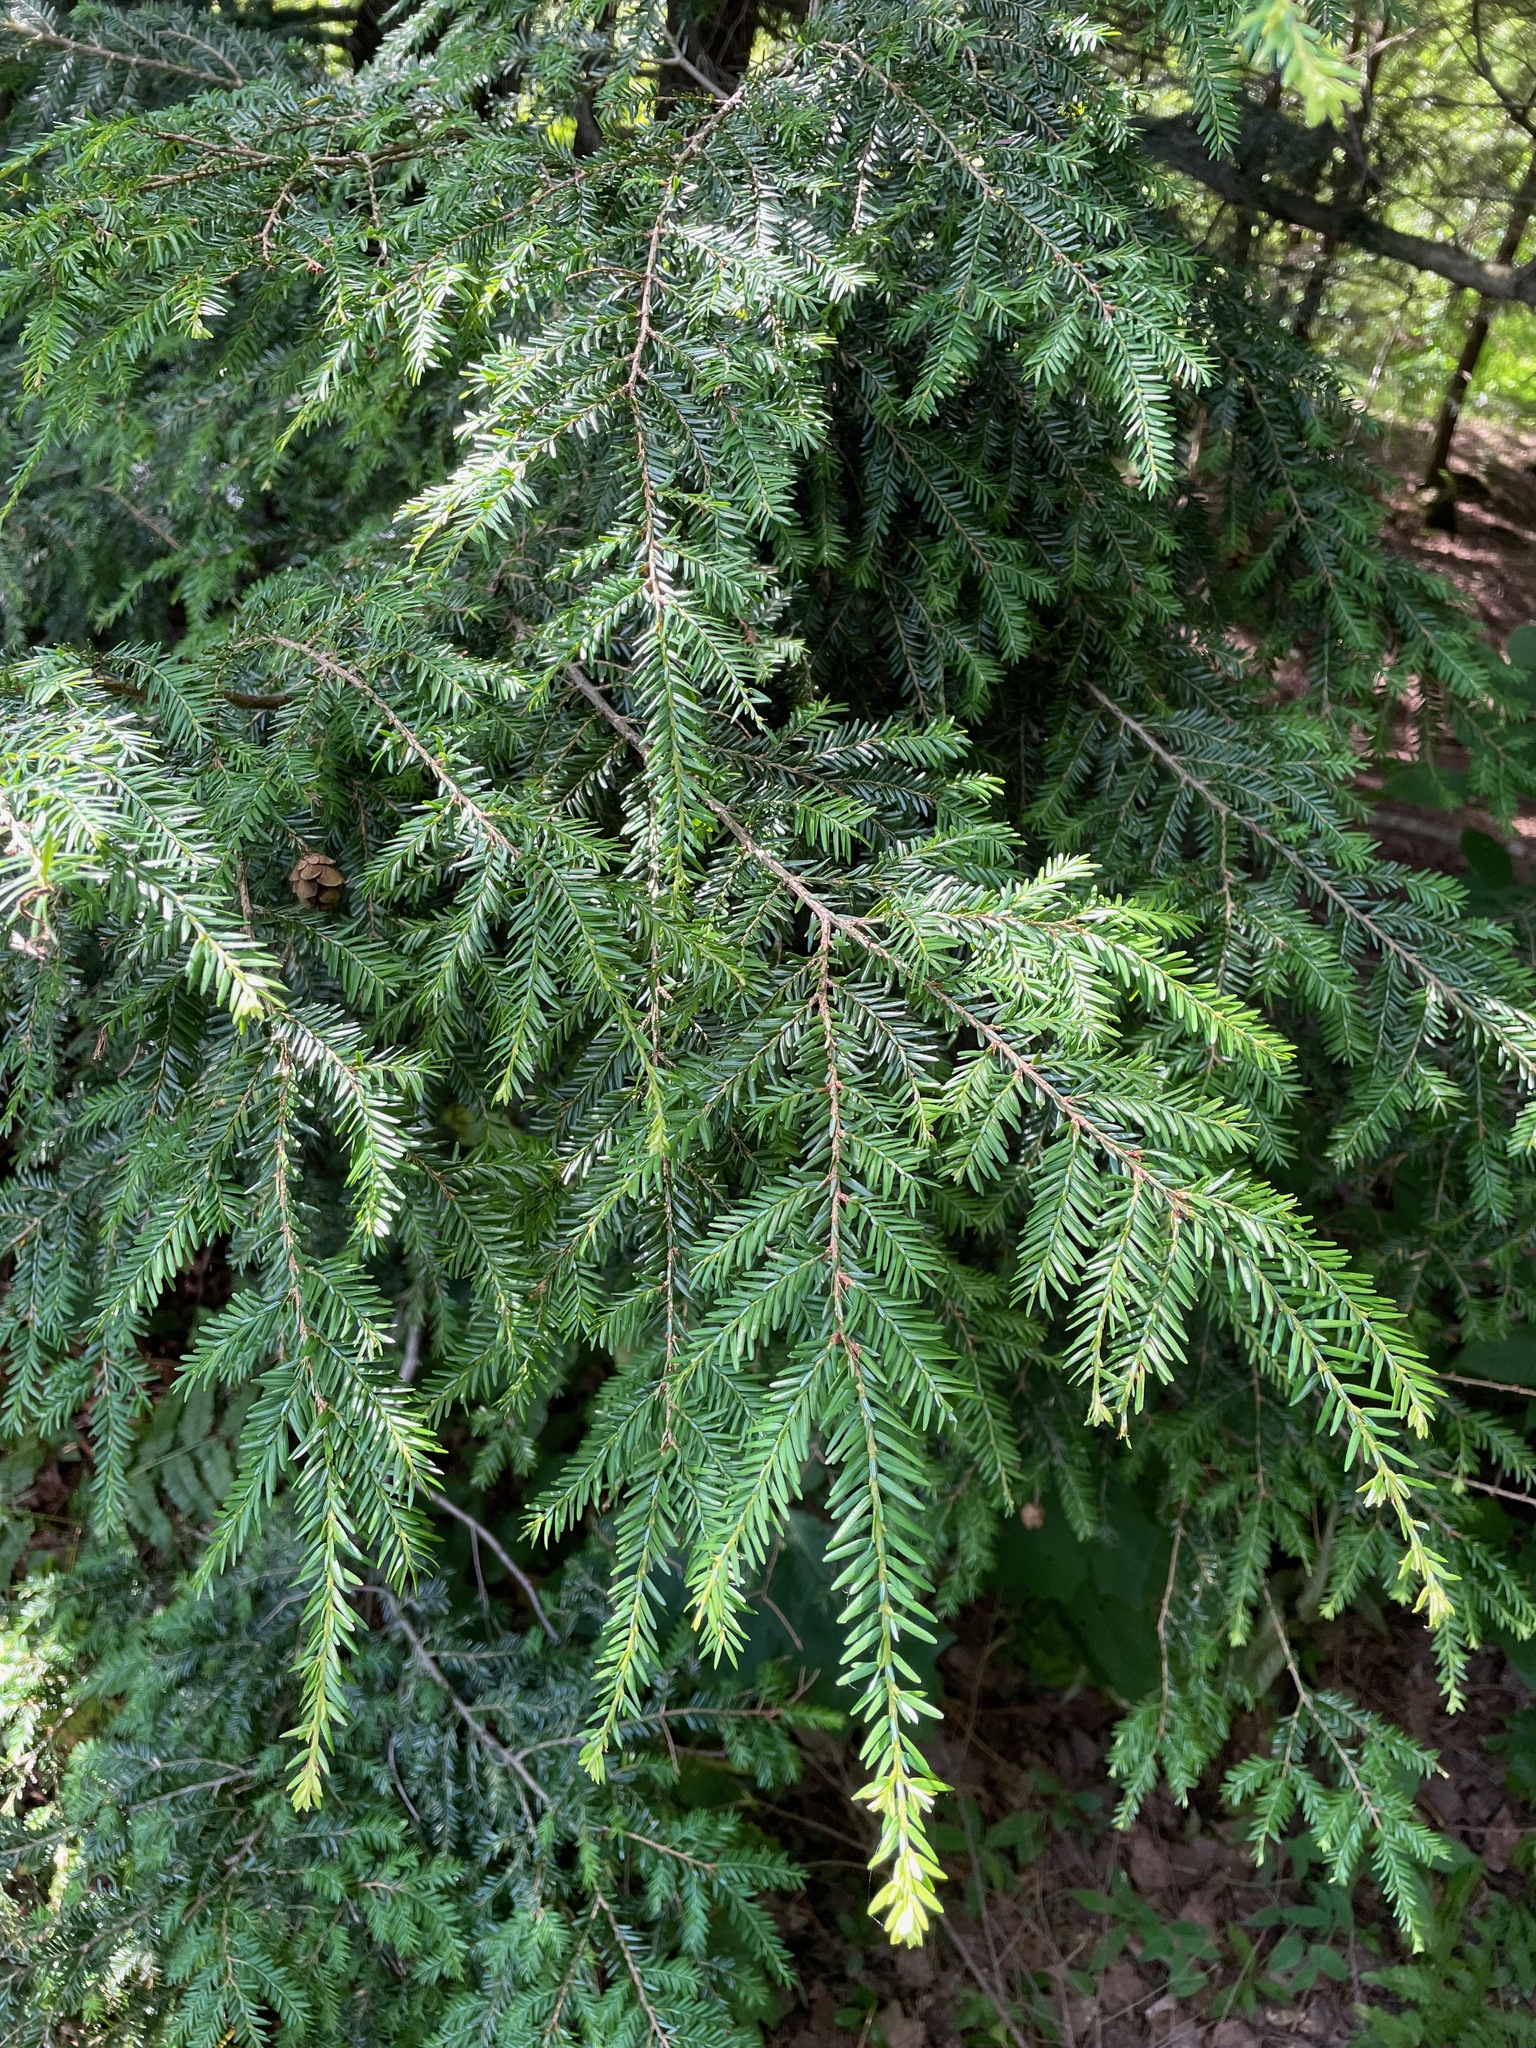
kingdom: Plantae
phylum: Tracheophyta
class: Pinopsida
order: Pinales
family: Pinaceae
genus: Tsuga
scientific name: Tsuga canadensis
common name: Eastern hemlock
